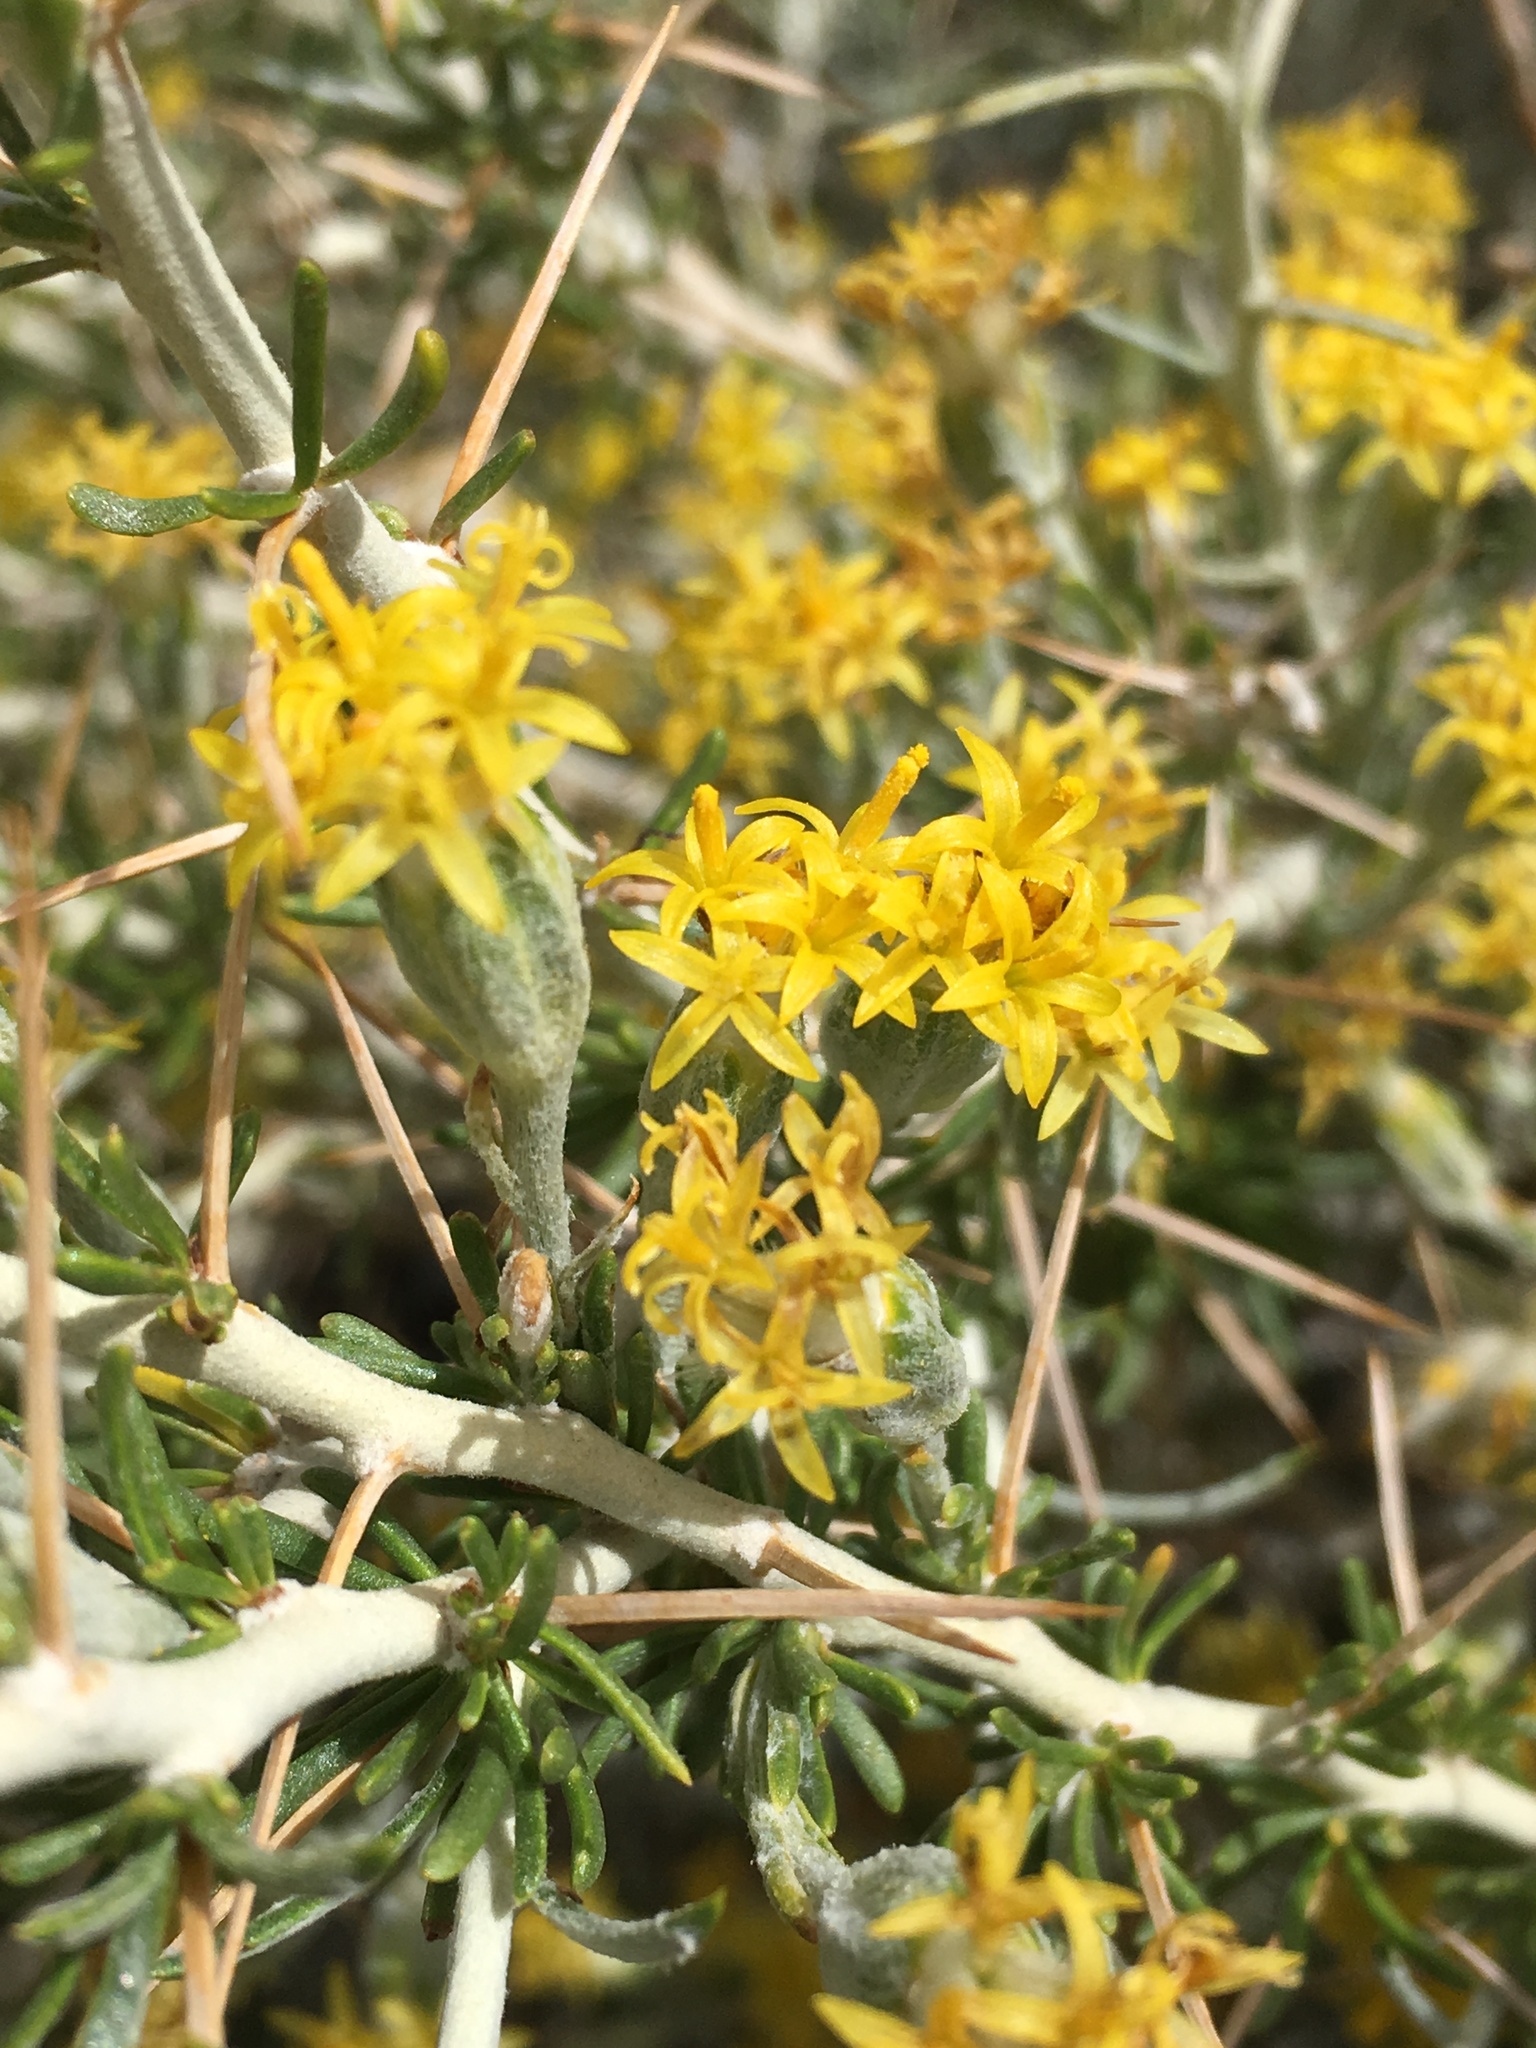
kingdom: Plantae
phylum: Tracheophyta
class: Magnoliopsida
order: Asterales
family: Asteraceae
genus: Tetradymia
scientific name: Tetradymia axillaris
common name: Long-spine horsebrush
